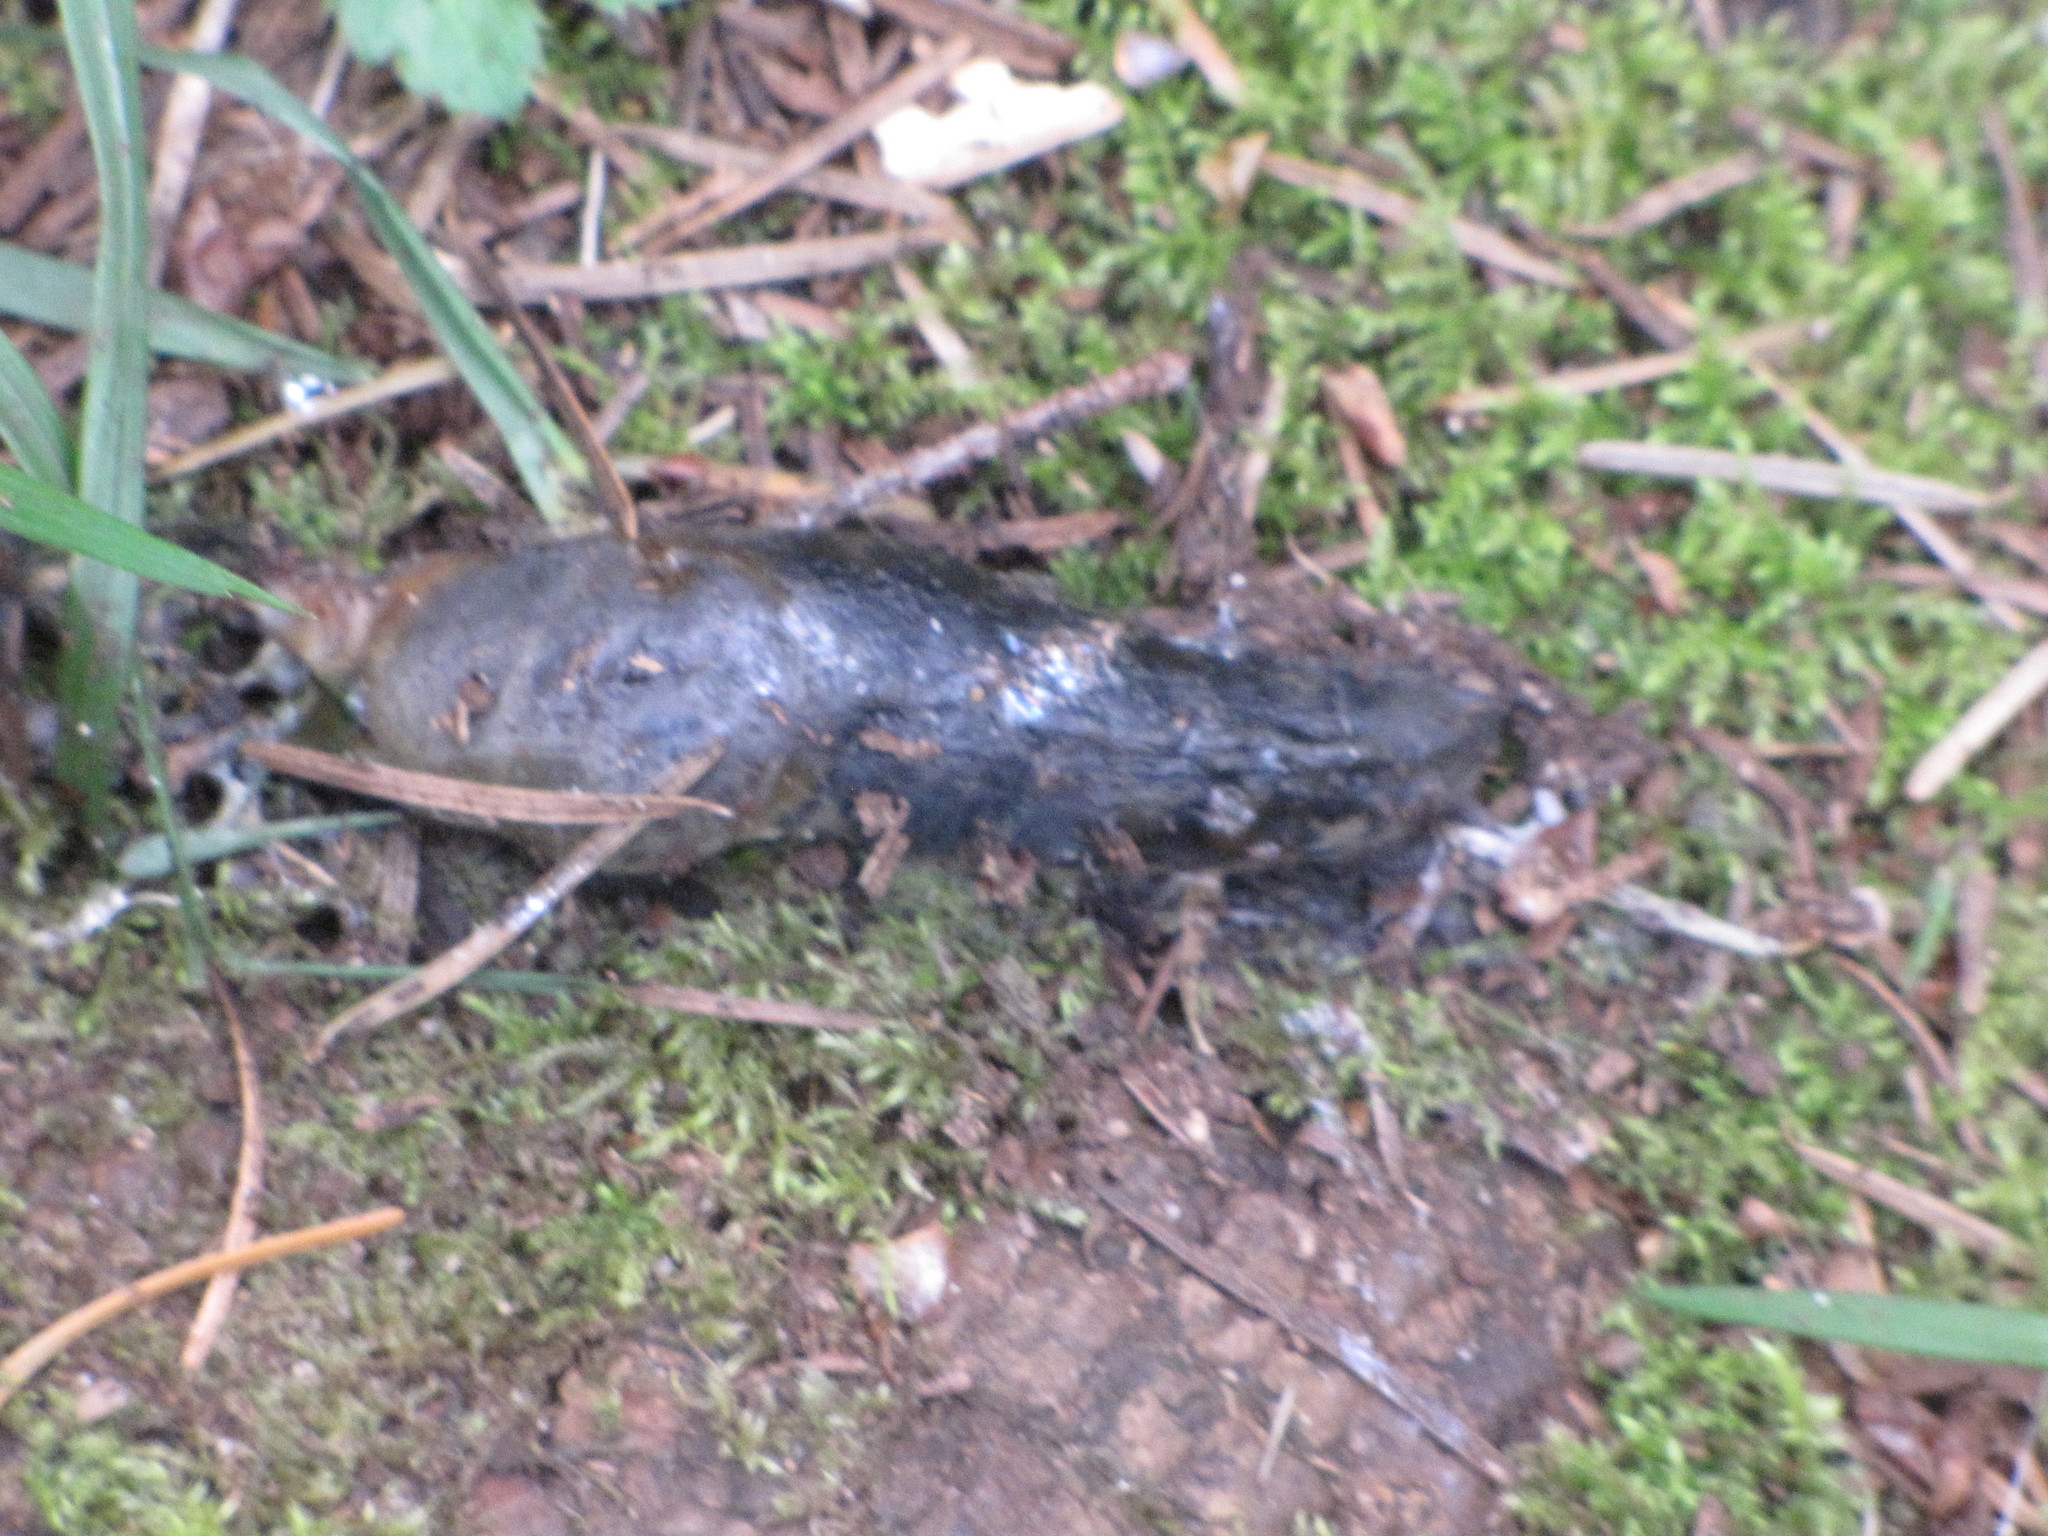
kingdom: Animalia
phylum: Mollusca
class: Gastropoda
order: Stylommatophora
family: Ariolimacidae
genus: Ariolimax
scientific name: Ariolimax columbianus
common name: Pacific banana slug
